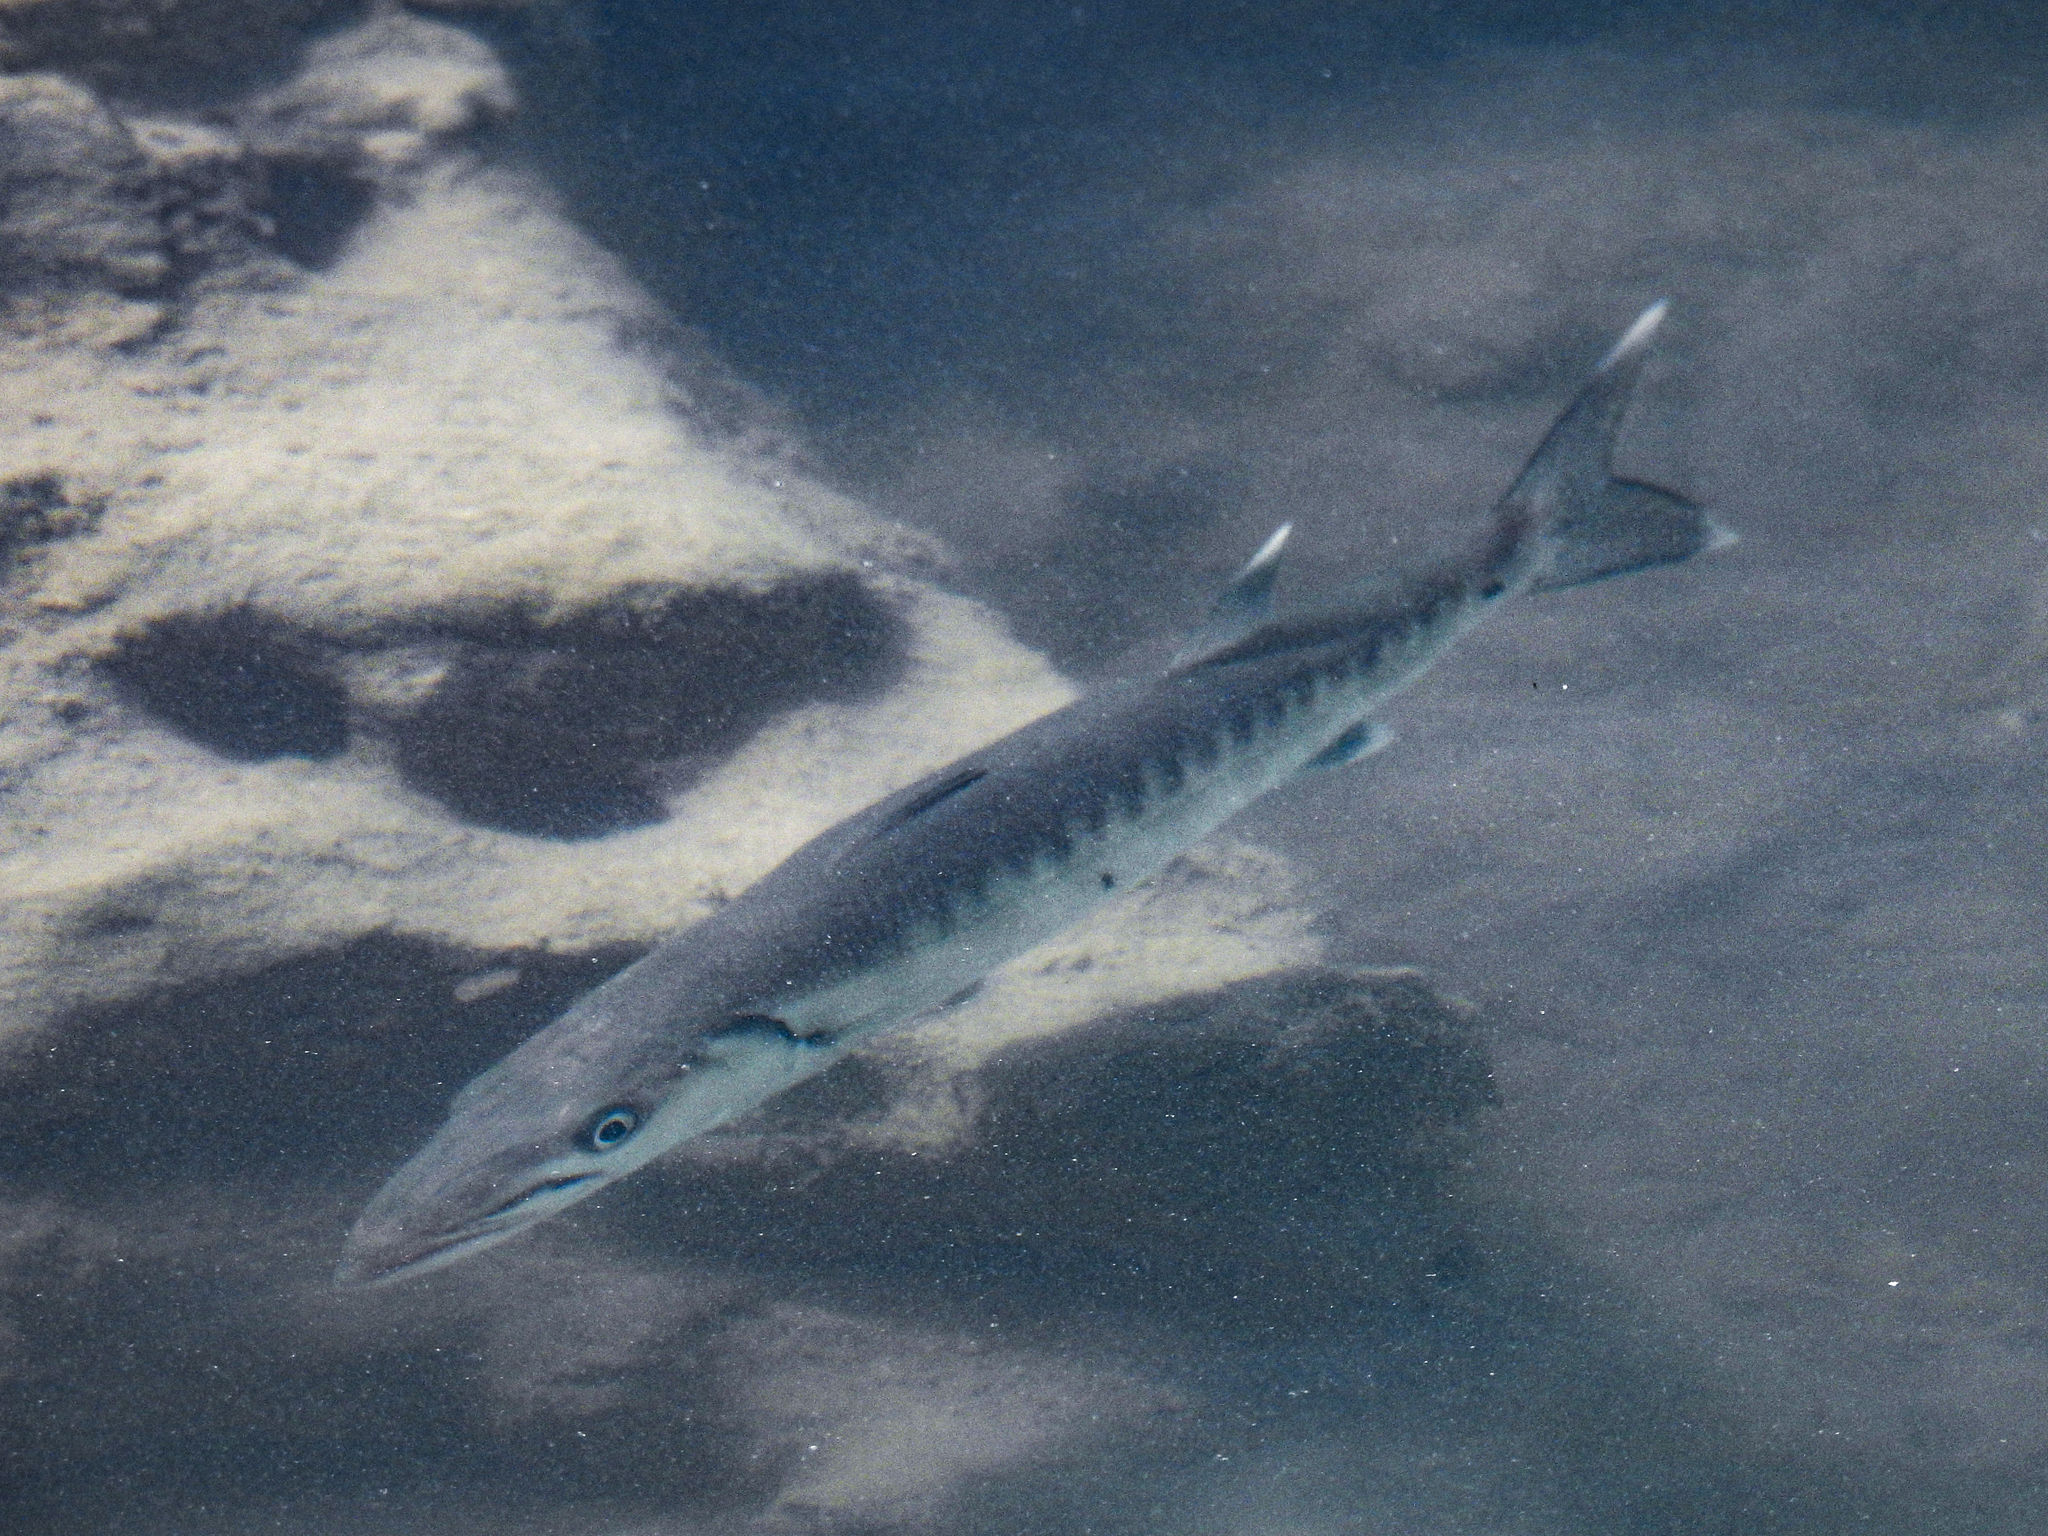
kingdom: Animalia
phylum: Chordata
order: Perciformes
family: Sphyraenidae
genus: Sphyraena
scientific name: Sphyraena barracuda
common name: Great barracuda
